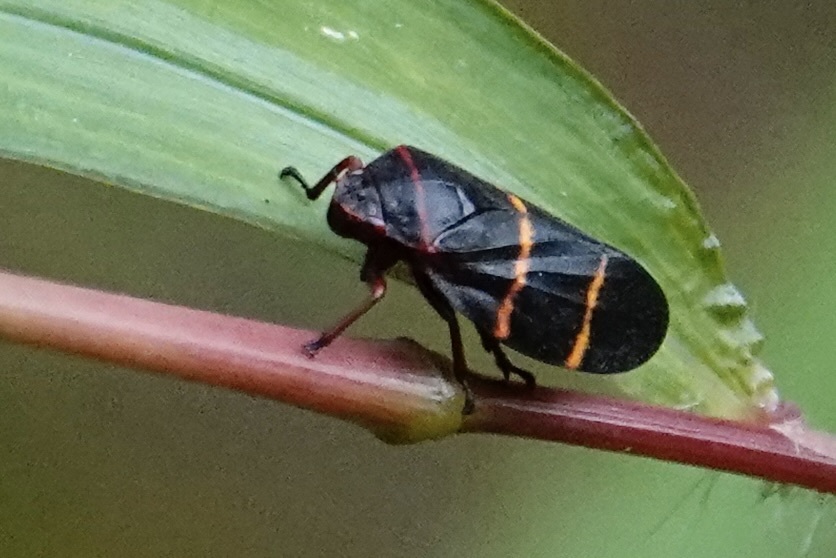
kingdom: Animalia
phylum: Arthropoda
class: Insecta
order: Hemiptera
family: Cercopidae
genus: Prosapia
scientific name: Prosapia bicincta
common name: Twolined spittlebug
